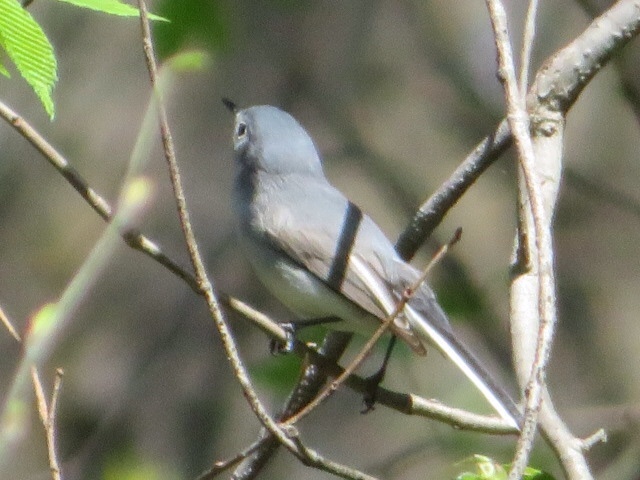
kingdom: Animalia
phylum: Chordata
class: Aves
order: Passeriformes
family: Polioptilidae
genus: Polioptila
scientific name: Polioptila caerulea
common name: Blue-gray gnatcatcher
